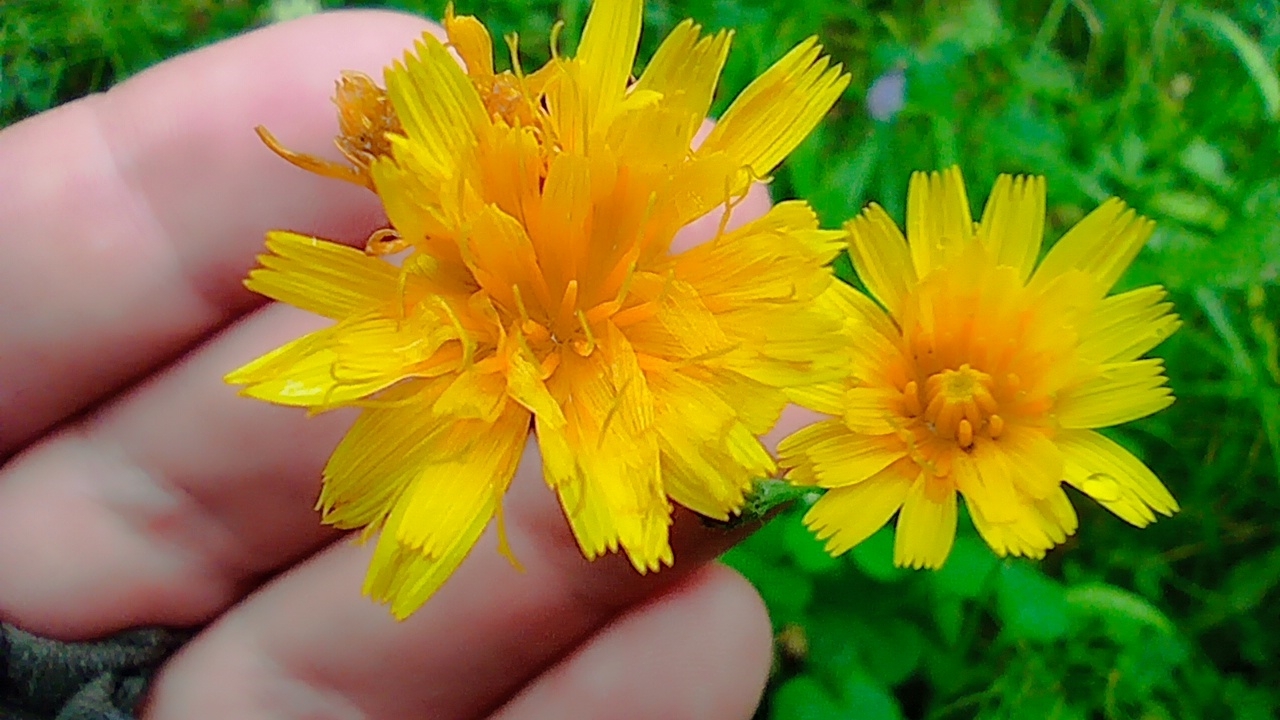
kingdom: Plantae
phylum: Tracheophyta
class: Magnoliopsida
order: Asterales
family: Asteraceae
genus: Scorzoneroides
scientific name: Scorzoneroides autumnalis
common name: Autumn hawkbit
